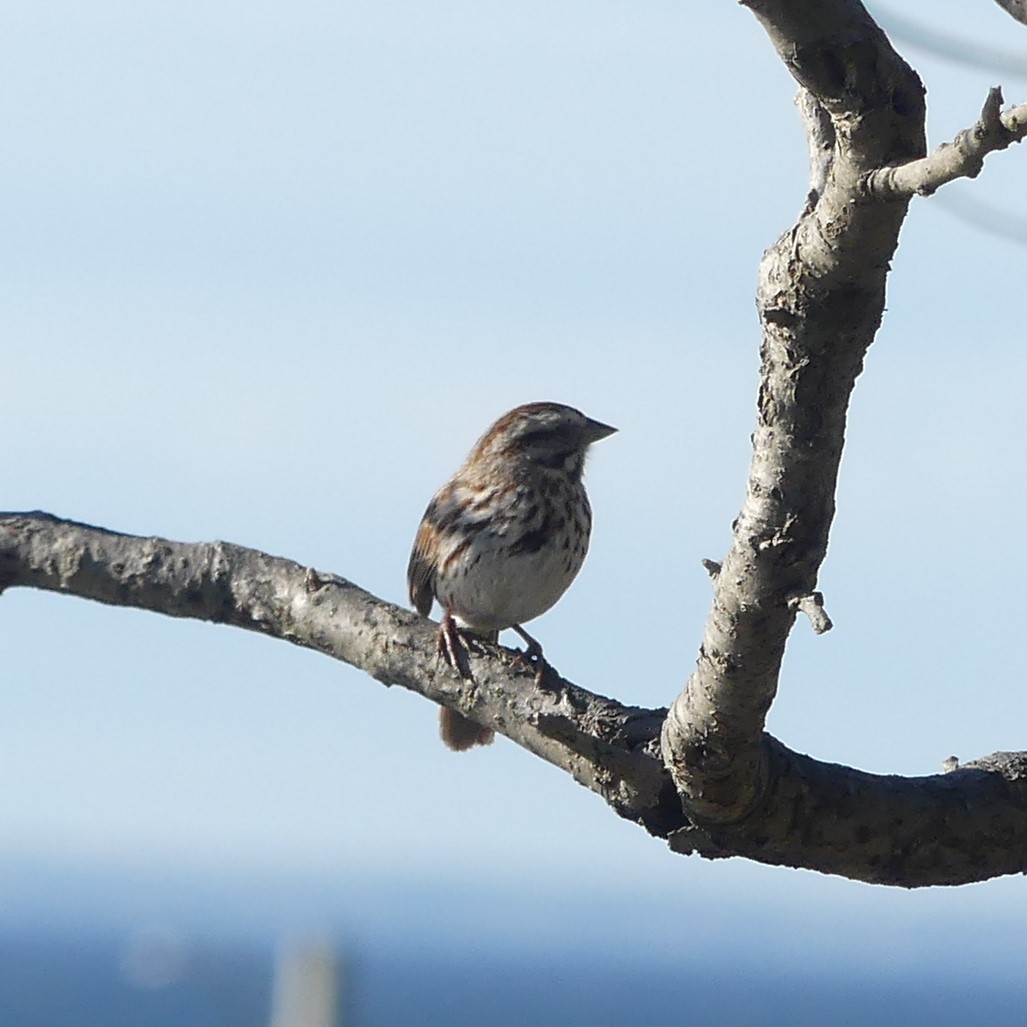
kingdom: Animalia
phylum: Chordata
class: Aves
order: Passeriformes
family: Passerellidae
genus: Melospiza
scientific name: Melospiza melodia
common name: Song sparrow
